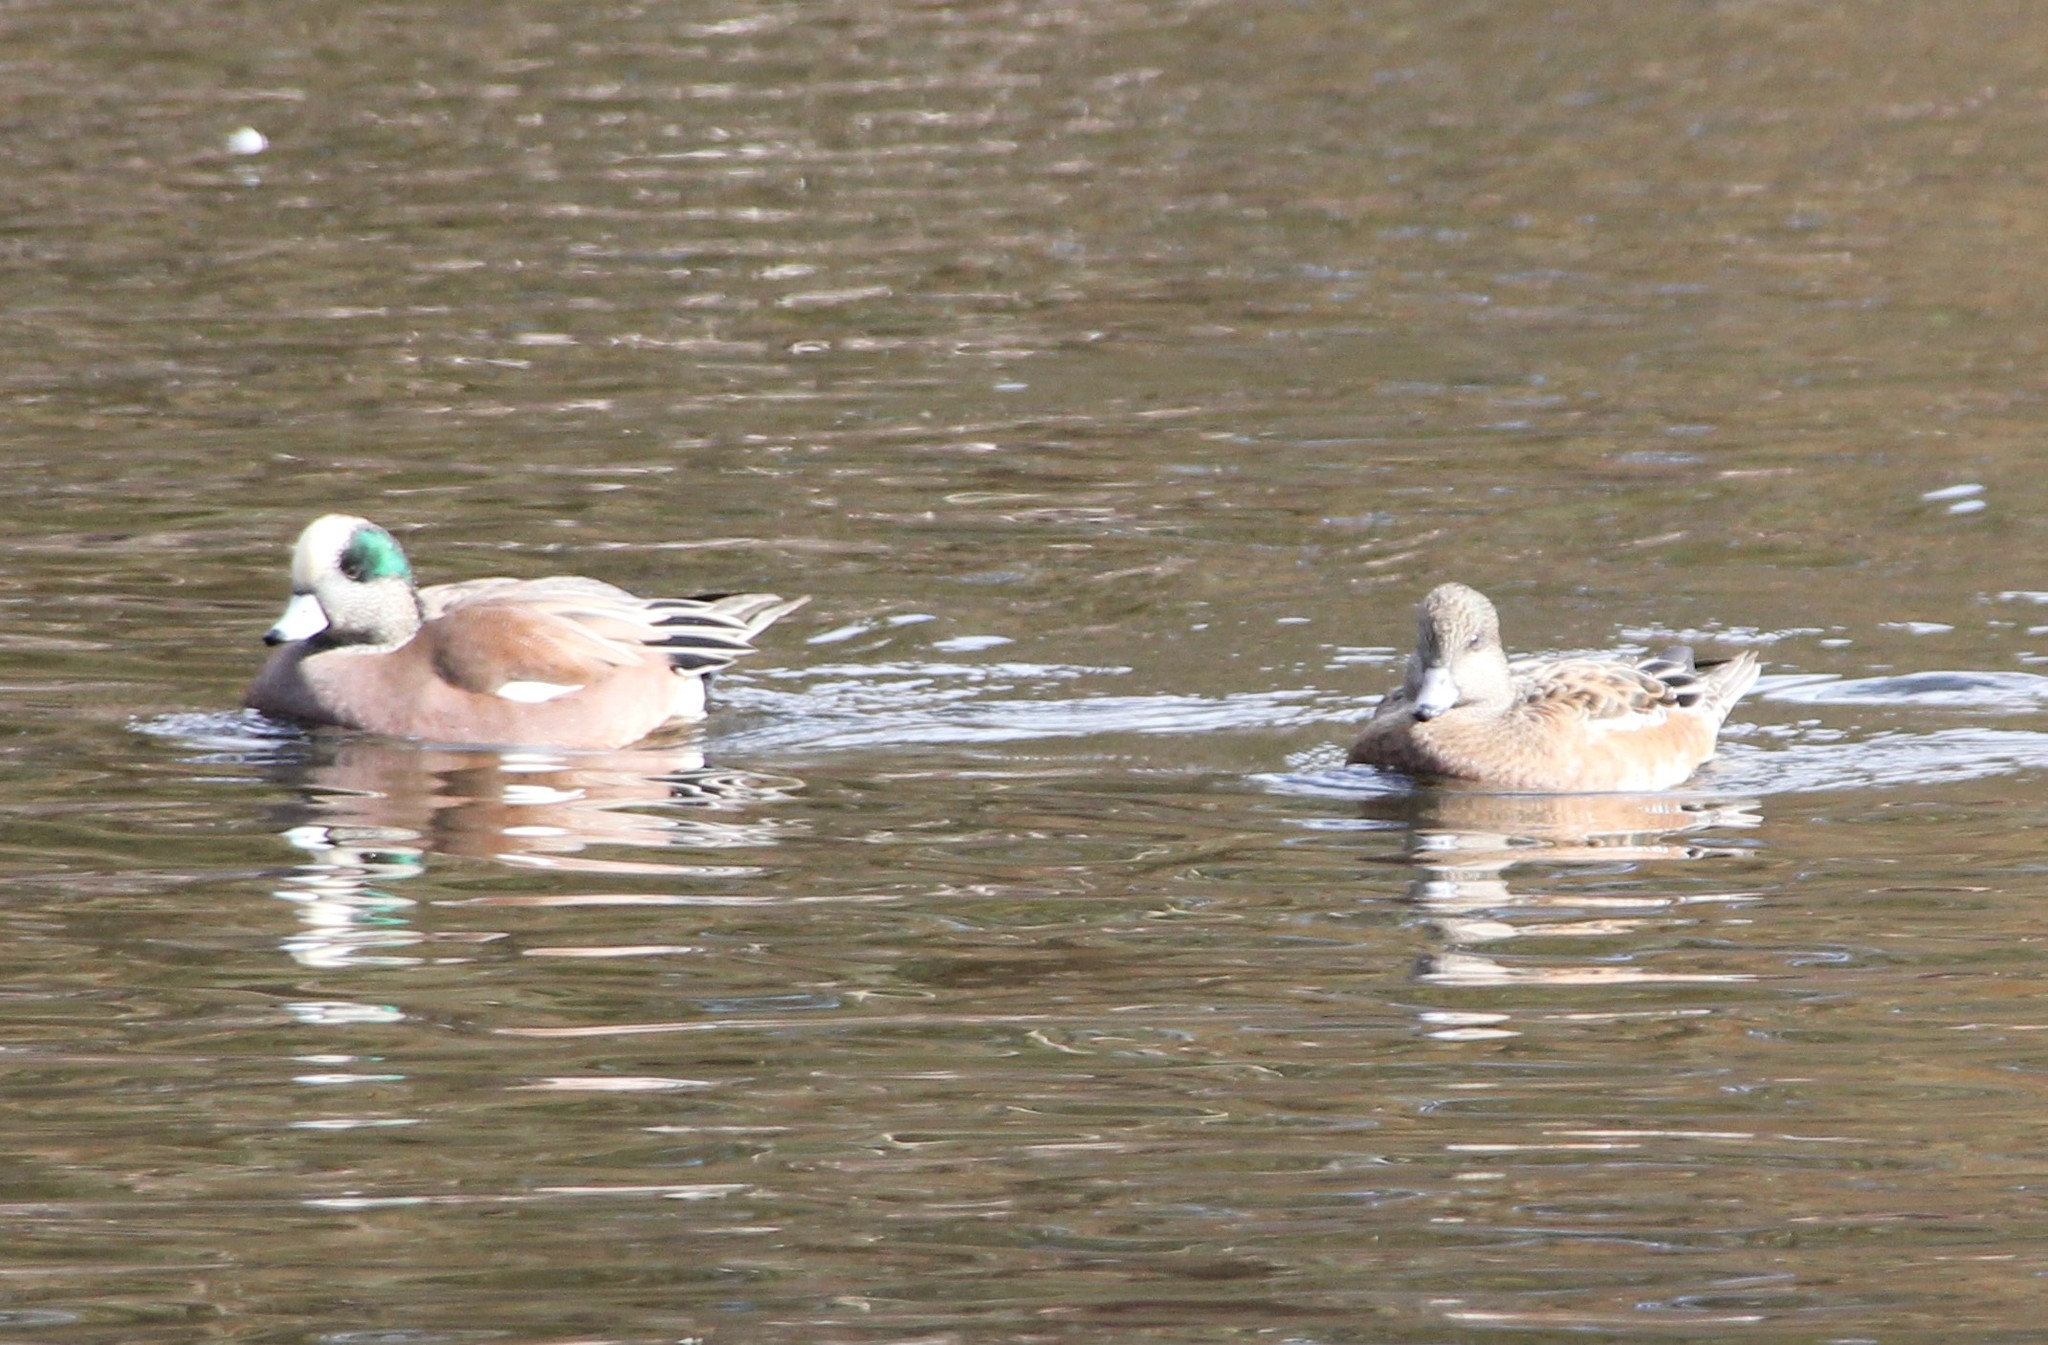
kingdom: Animalia
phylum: Chordata
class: Aves
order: Anseriformes
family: Anatidae
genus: Mareca
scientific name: Mareca americana
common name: American wigeon
